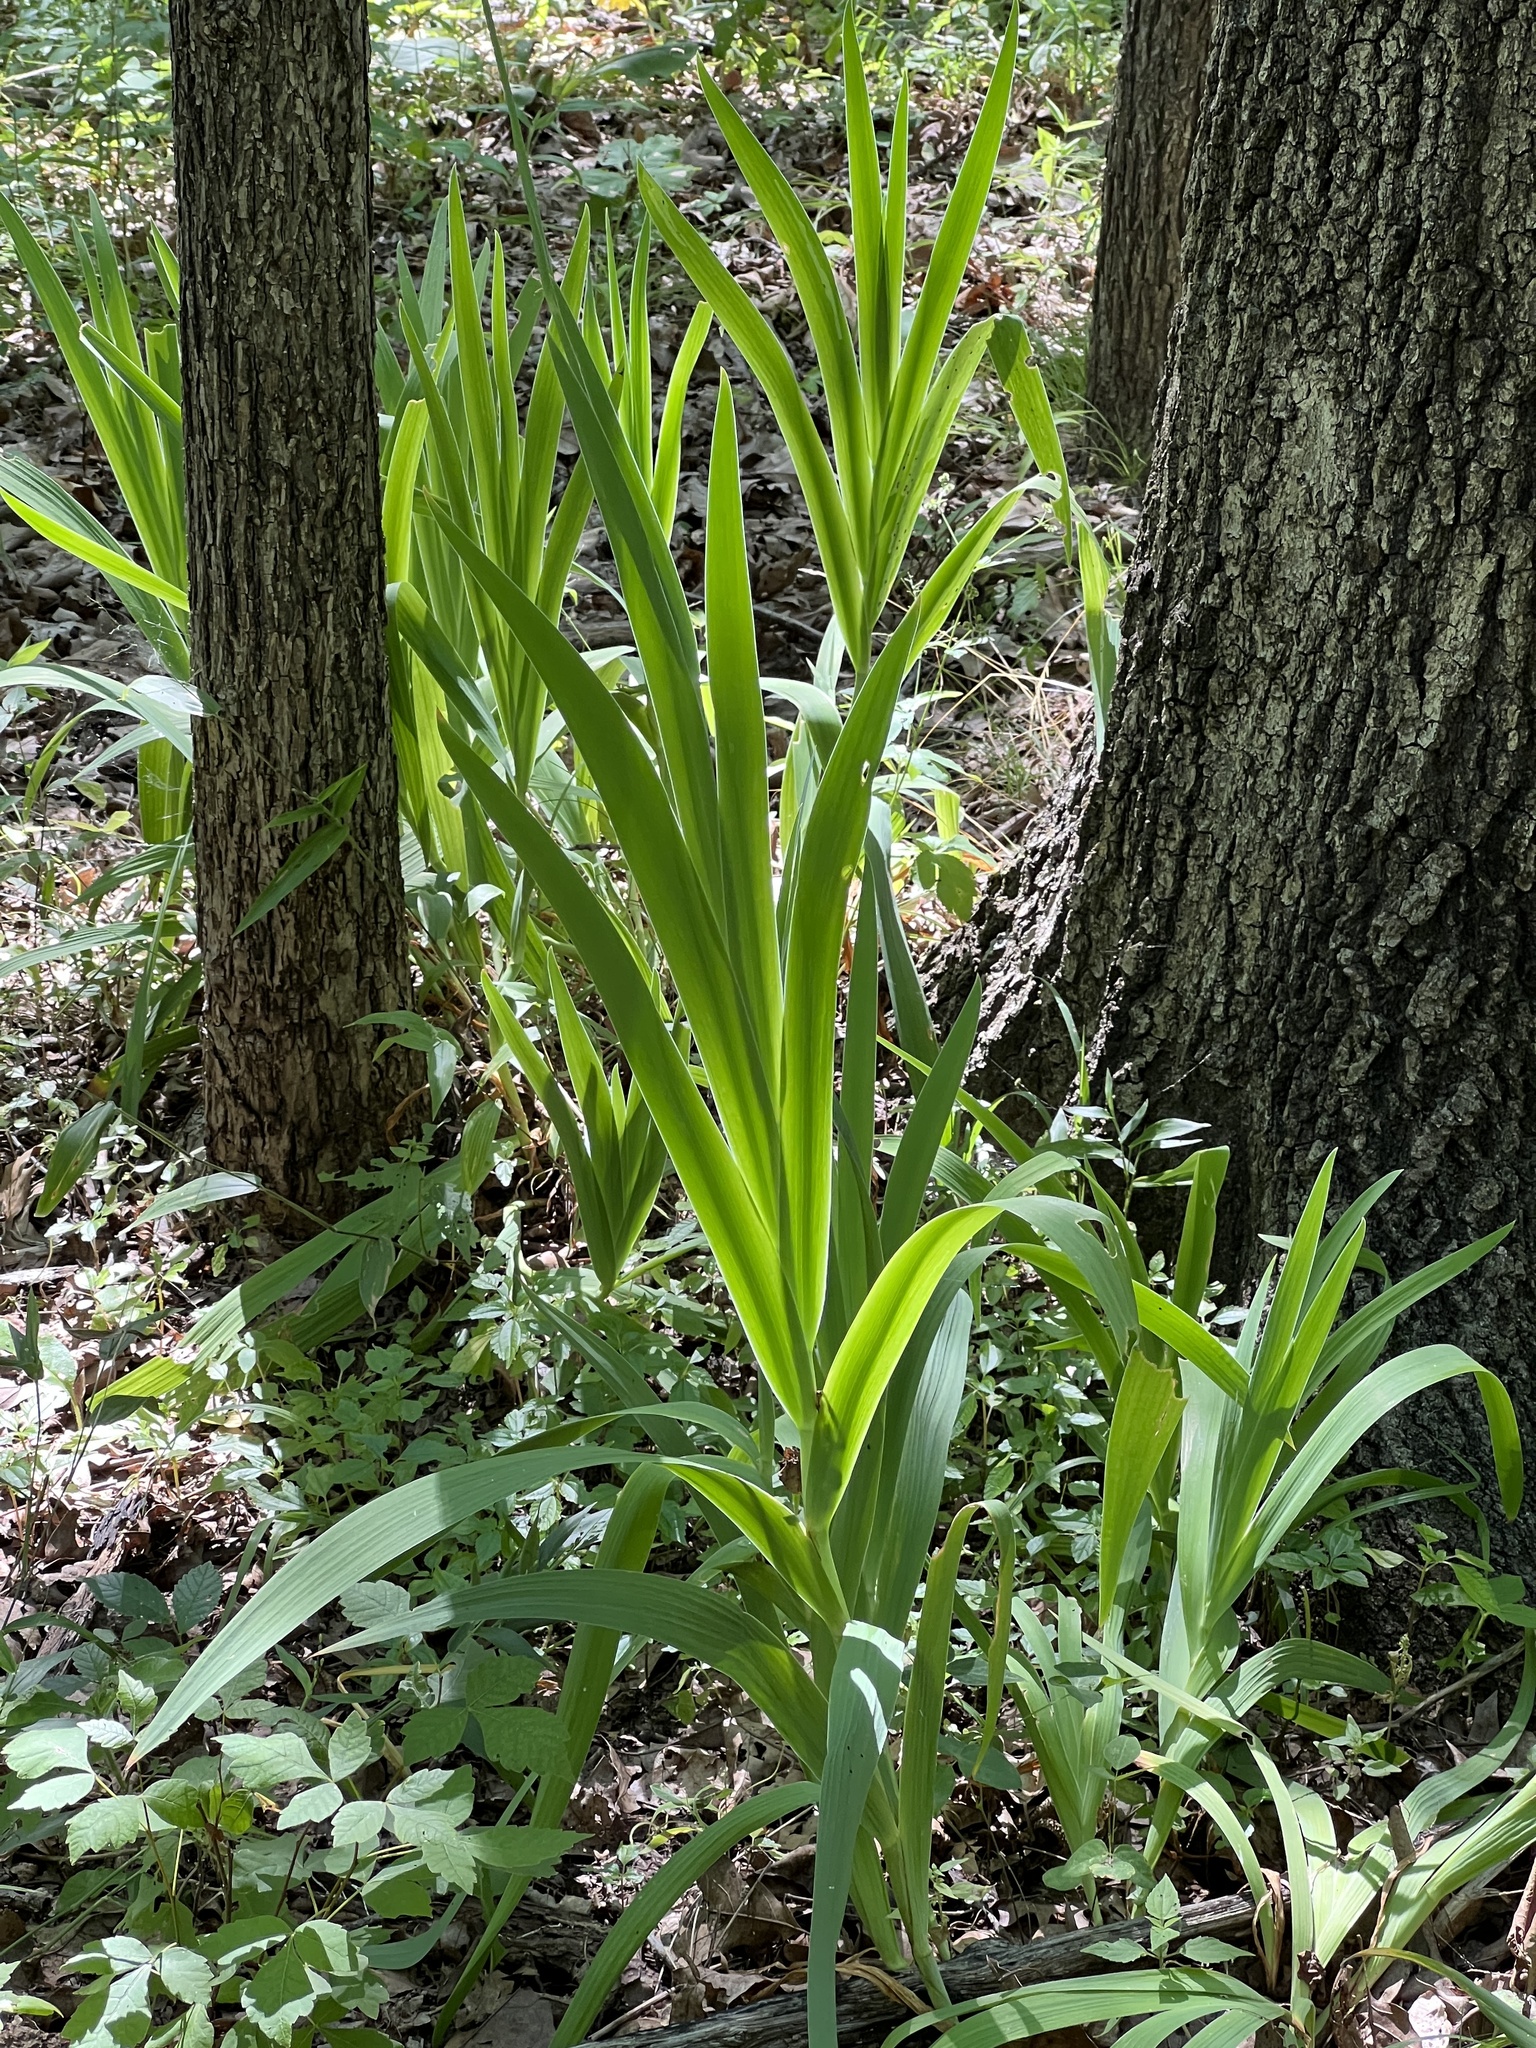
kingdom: Plantae
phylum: Tracheophyta
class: Liliopsida
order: Asparagales
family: Iridaceae
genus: Iris
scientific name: Iris domestica
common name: Belamcanda
